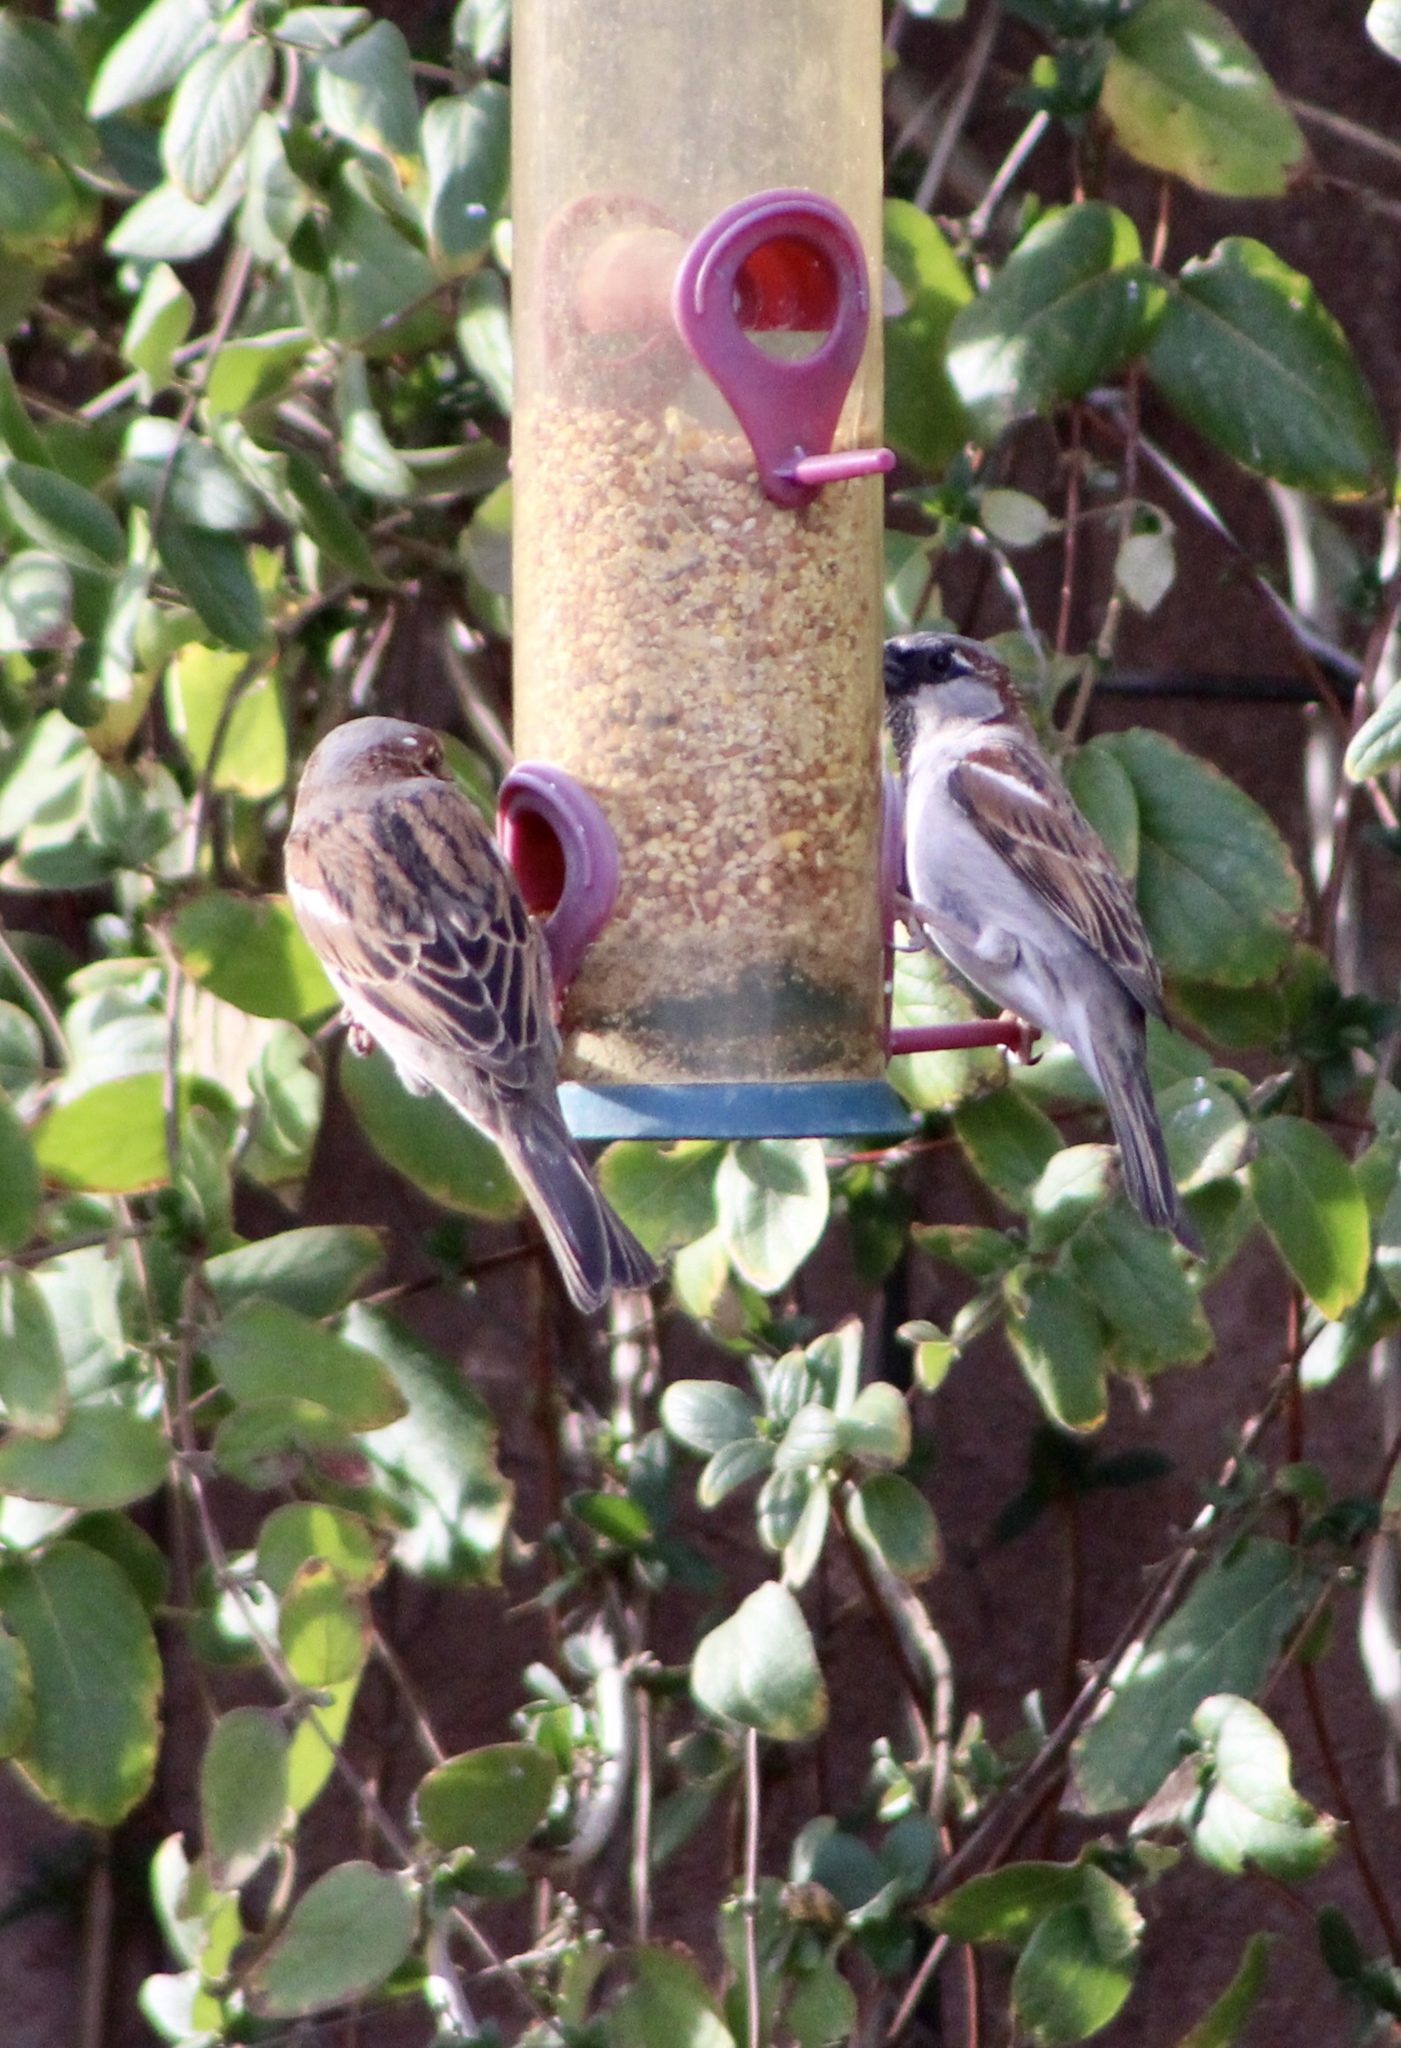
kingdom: Animalia
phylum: Chordata
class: Aves
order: Passeriformes
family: Passeridae
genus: Passer
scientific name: Passer domesticus
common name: House sparrow
